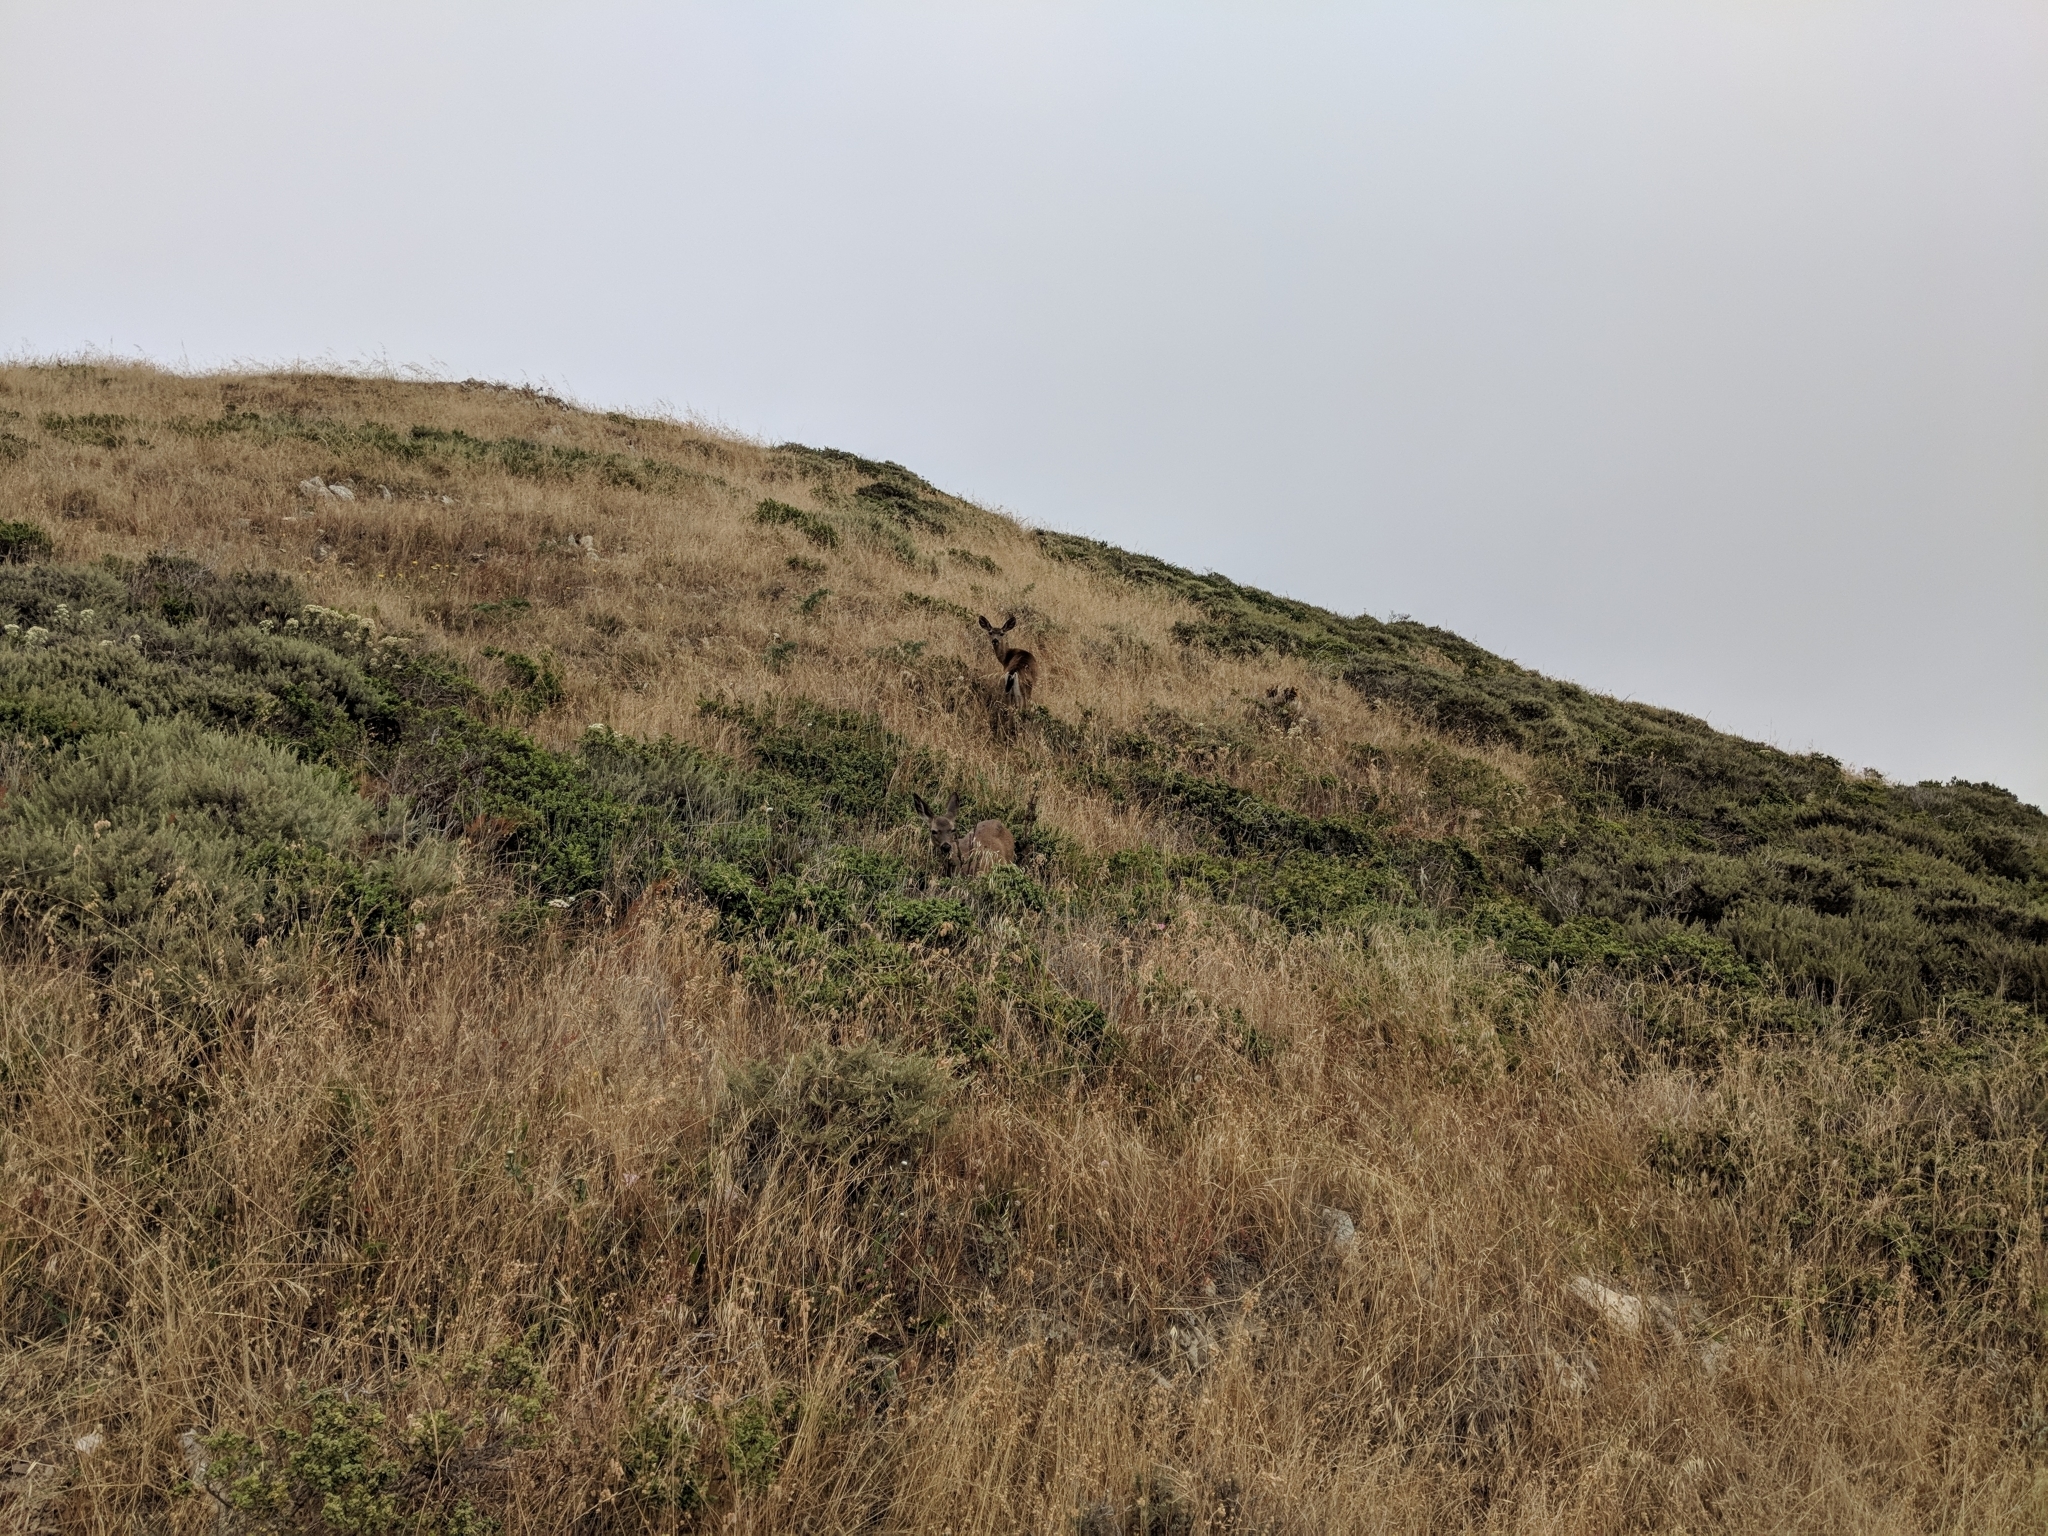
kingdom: Animalia
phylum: Chordata
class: Mammalia
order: Artiodactyla
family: Cervidae
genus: Odocoileus
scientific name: Odocoileus hemionus
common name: Mule deer
